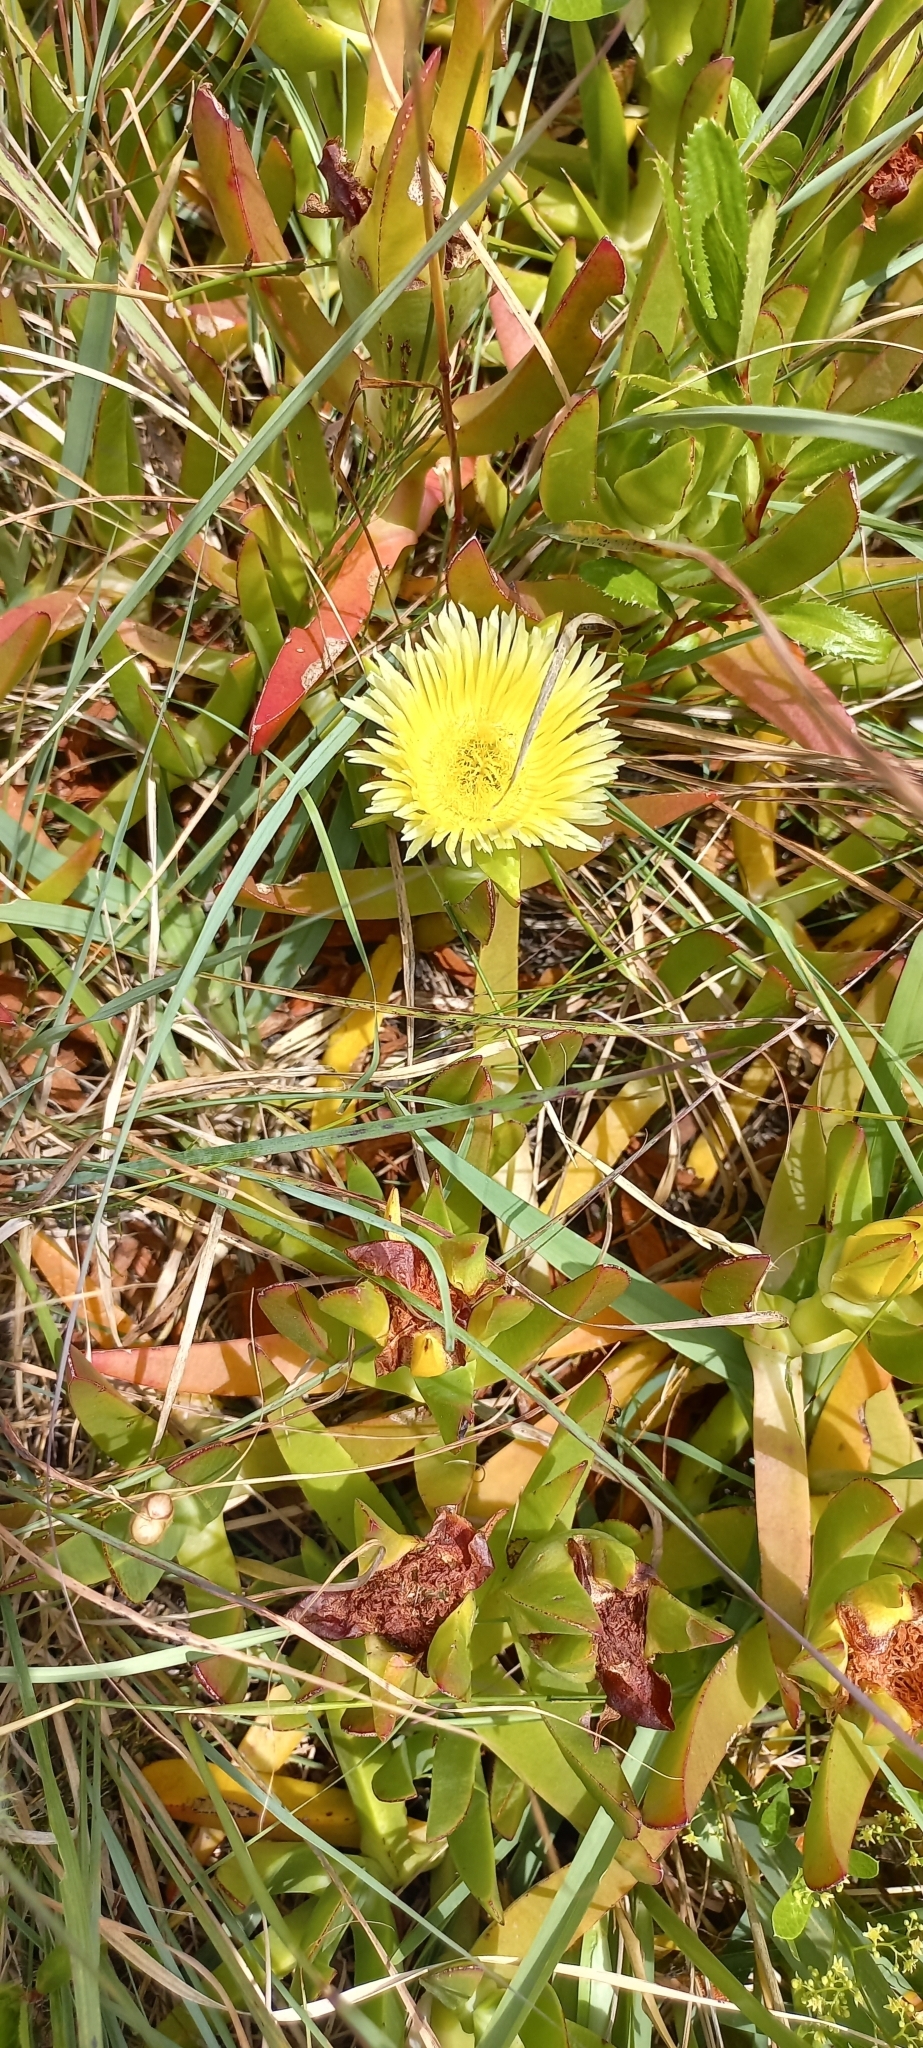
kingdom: Plantae
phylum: Tracheophyta
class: Magnoliopsida
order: Caryophyllales
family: Aizoaceae
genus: Carpobrotus
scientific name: Carpobrotus edulis
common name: Hottentot-fig
